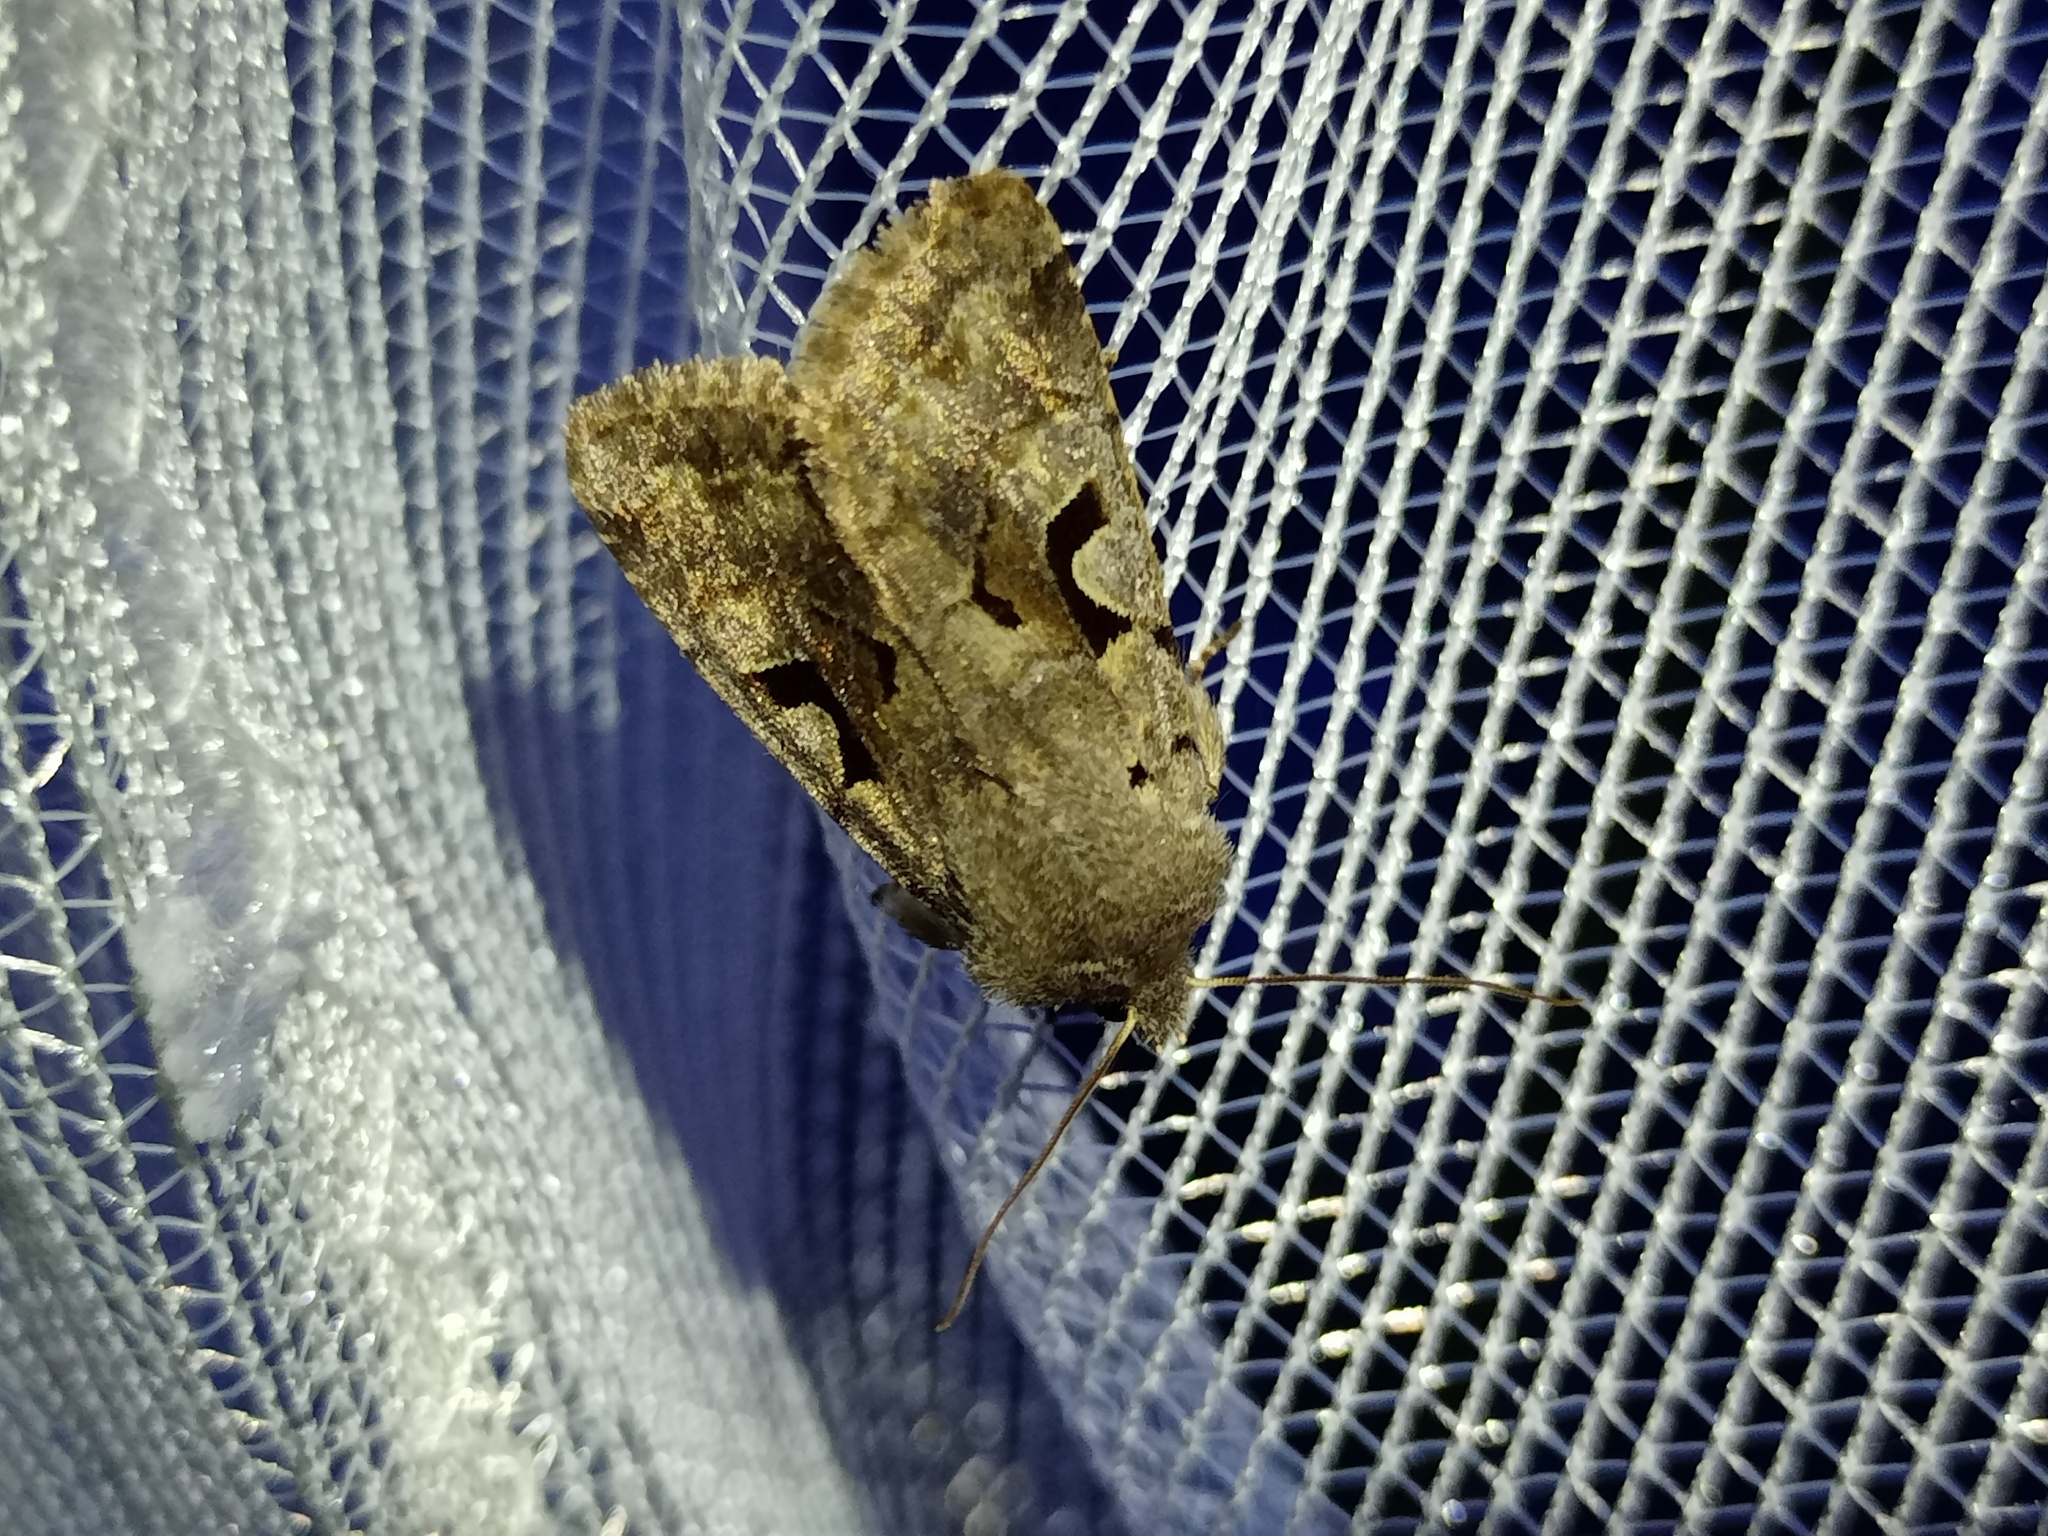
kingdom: Animalia
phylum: Arthropoda
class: Insecta
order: Lepidoptera
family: Noctuidae
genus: Orthosia
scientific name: Orthosia gothica
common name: Hebrew character
